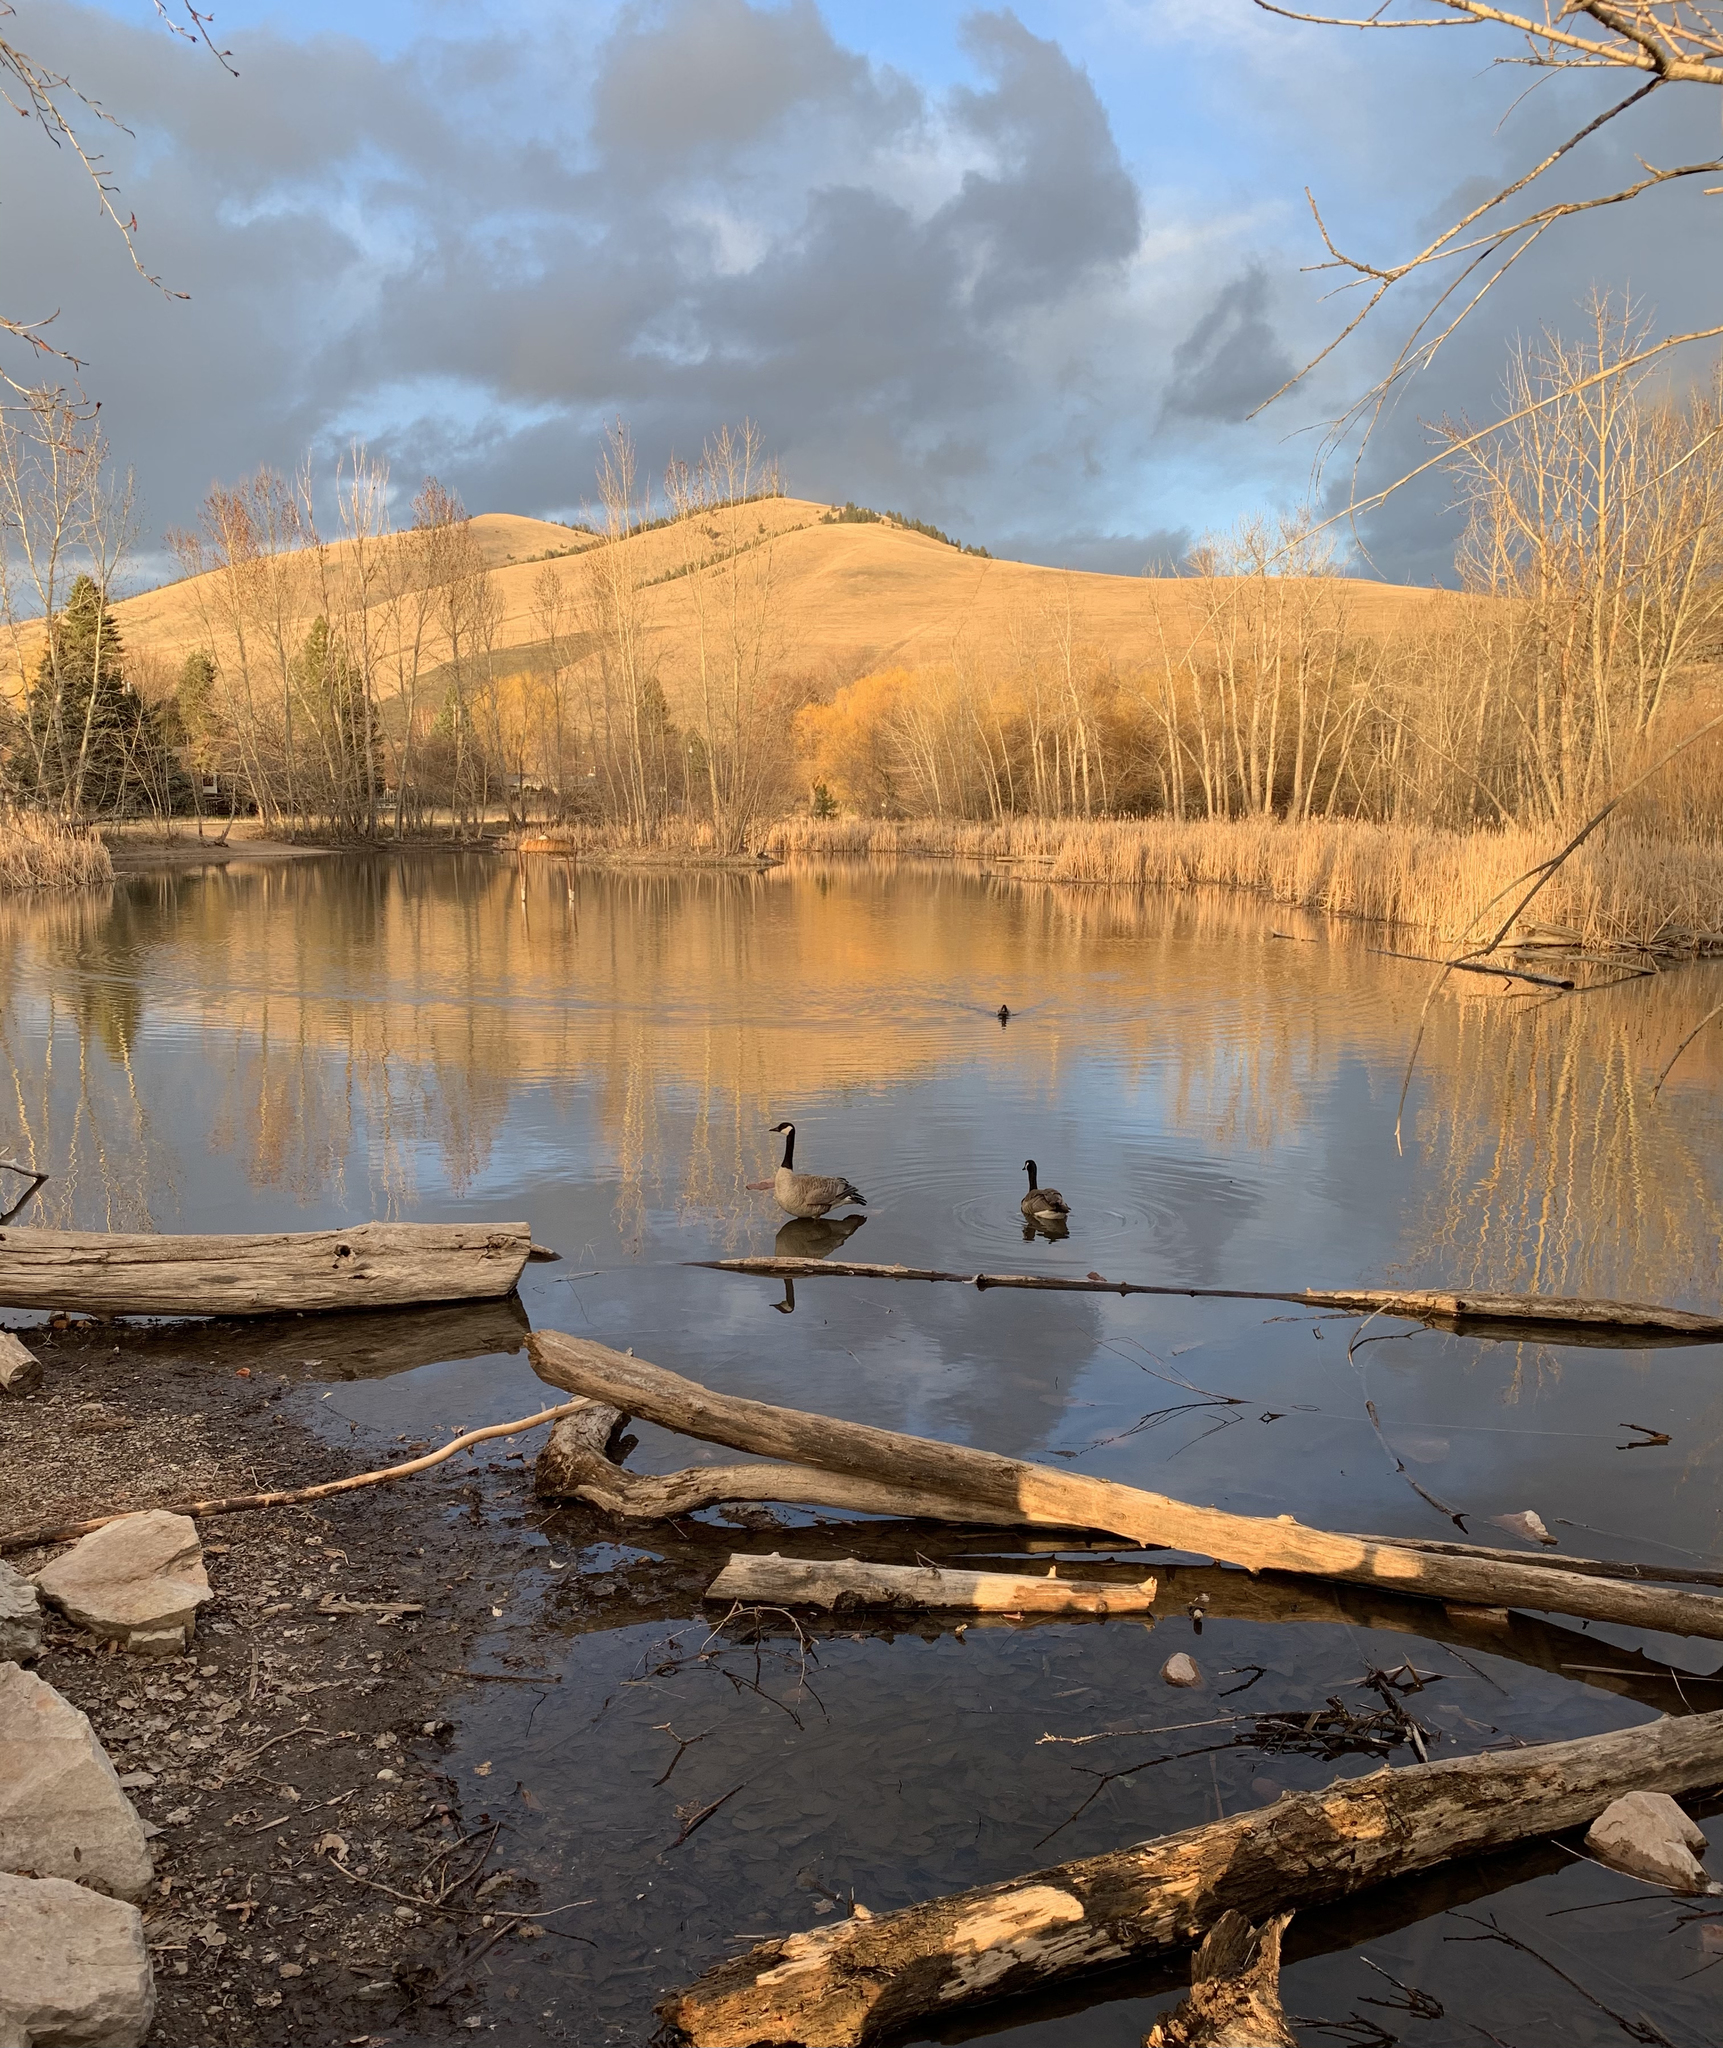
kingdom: Animalia
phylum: Chordata
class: Aves
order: Anseriformes
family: Anatidae
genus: Branta
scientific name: Branta canadensis
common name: Canada goose
